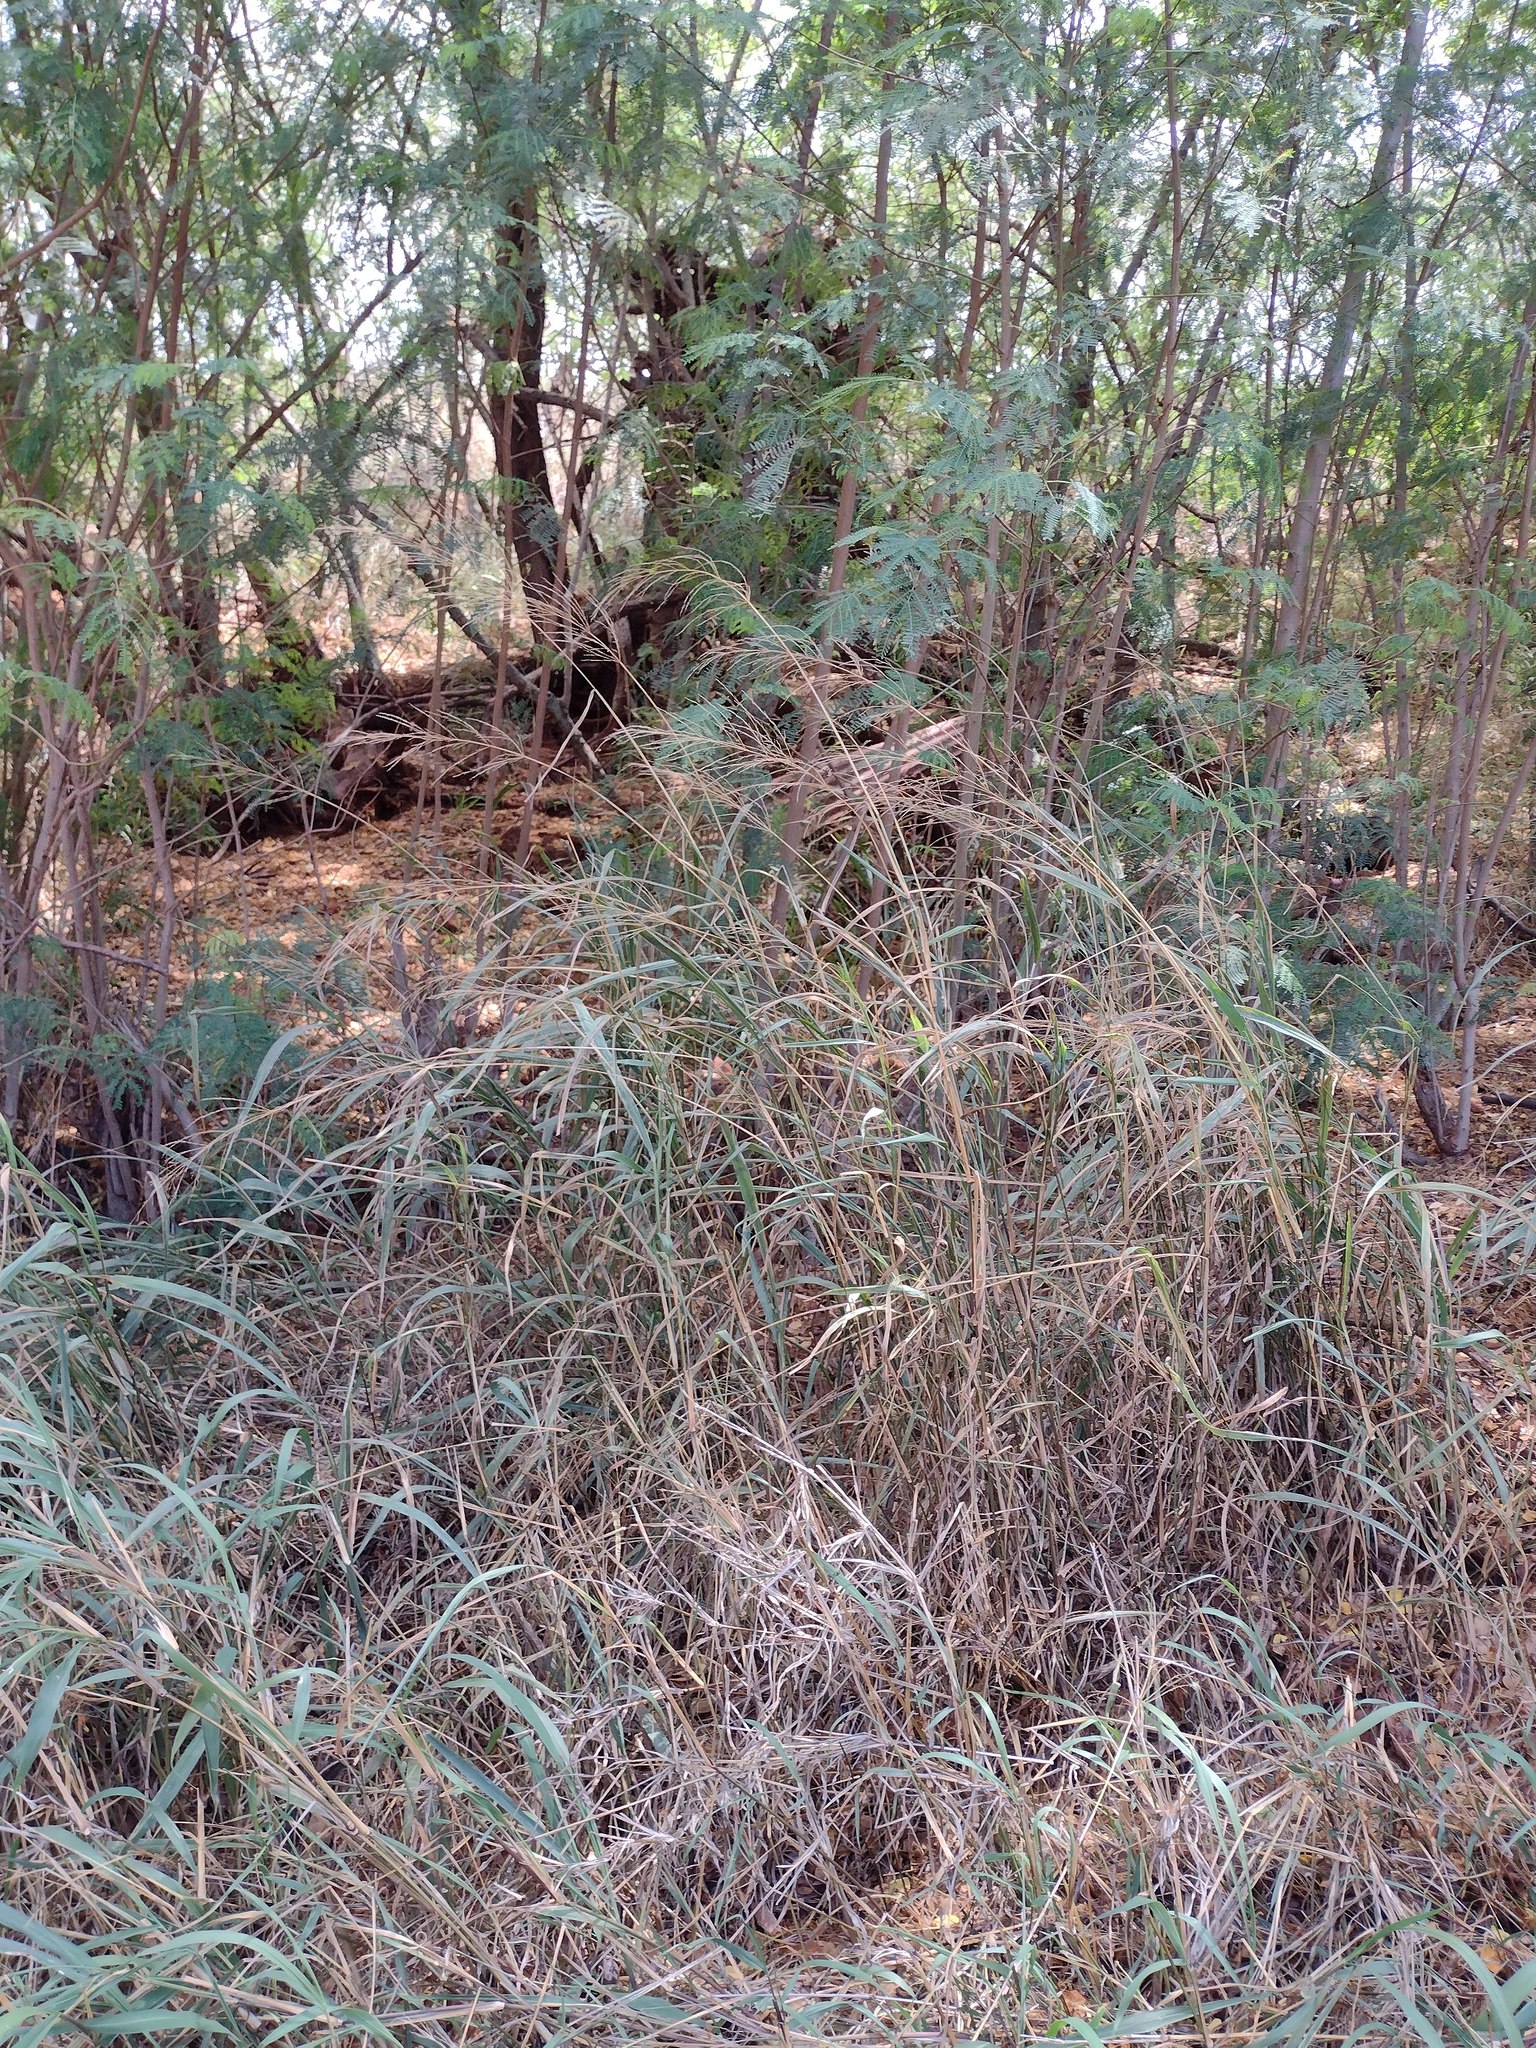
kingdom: Plantae
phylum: Tracheophyta
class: Liliopsida
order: Poales
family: Poaceae
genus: Megathyrsus
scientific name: Megathyrsus maximus
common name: Guineagrass
